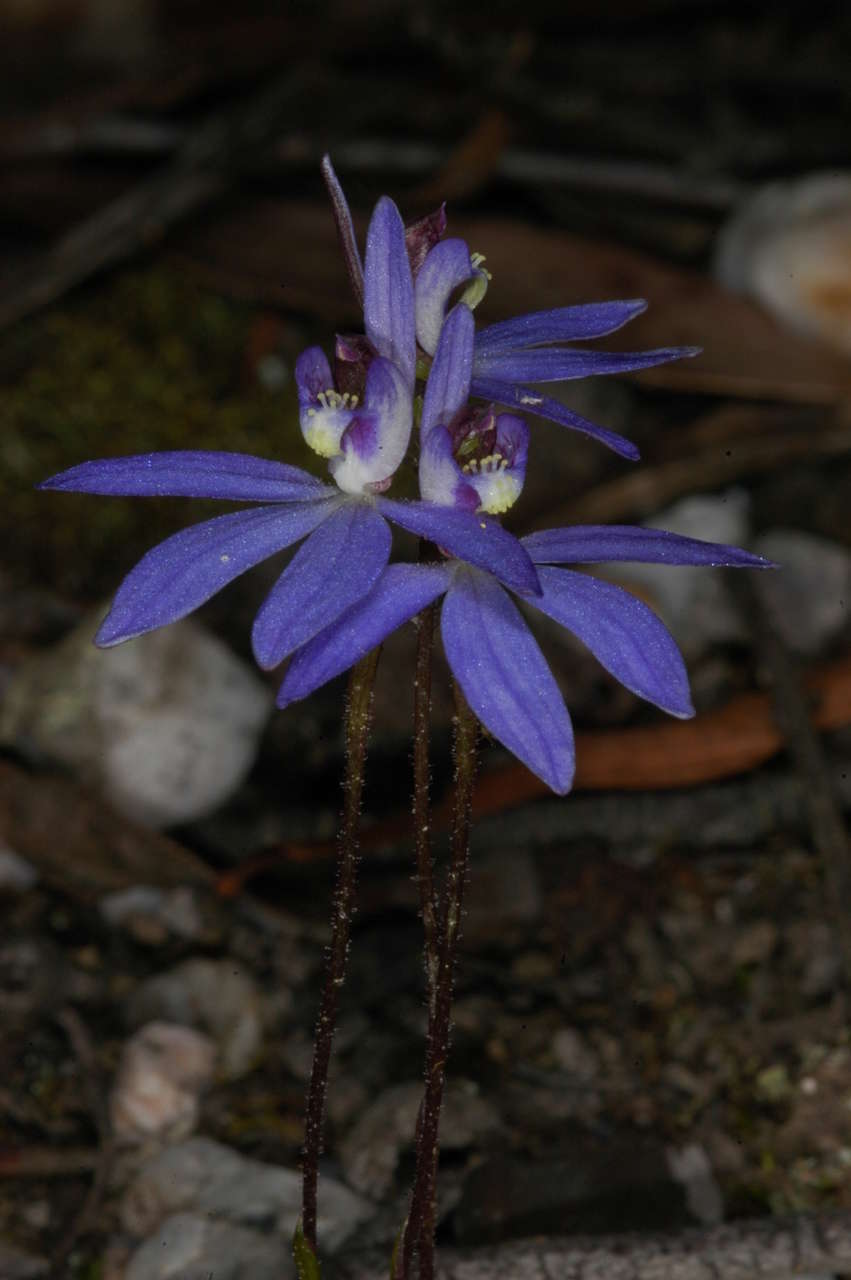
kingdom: Plantae
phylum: Tracheophyta
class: Liliopsida
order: Asparagales
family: Orchidaceae
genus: Caladenia
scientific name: Caladenia caerulea
